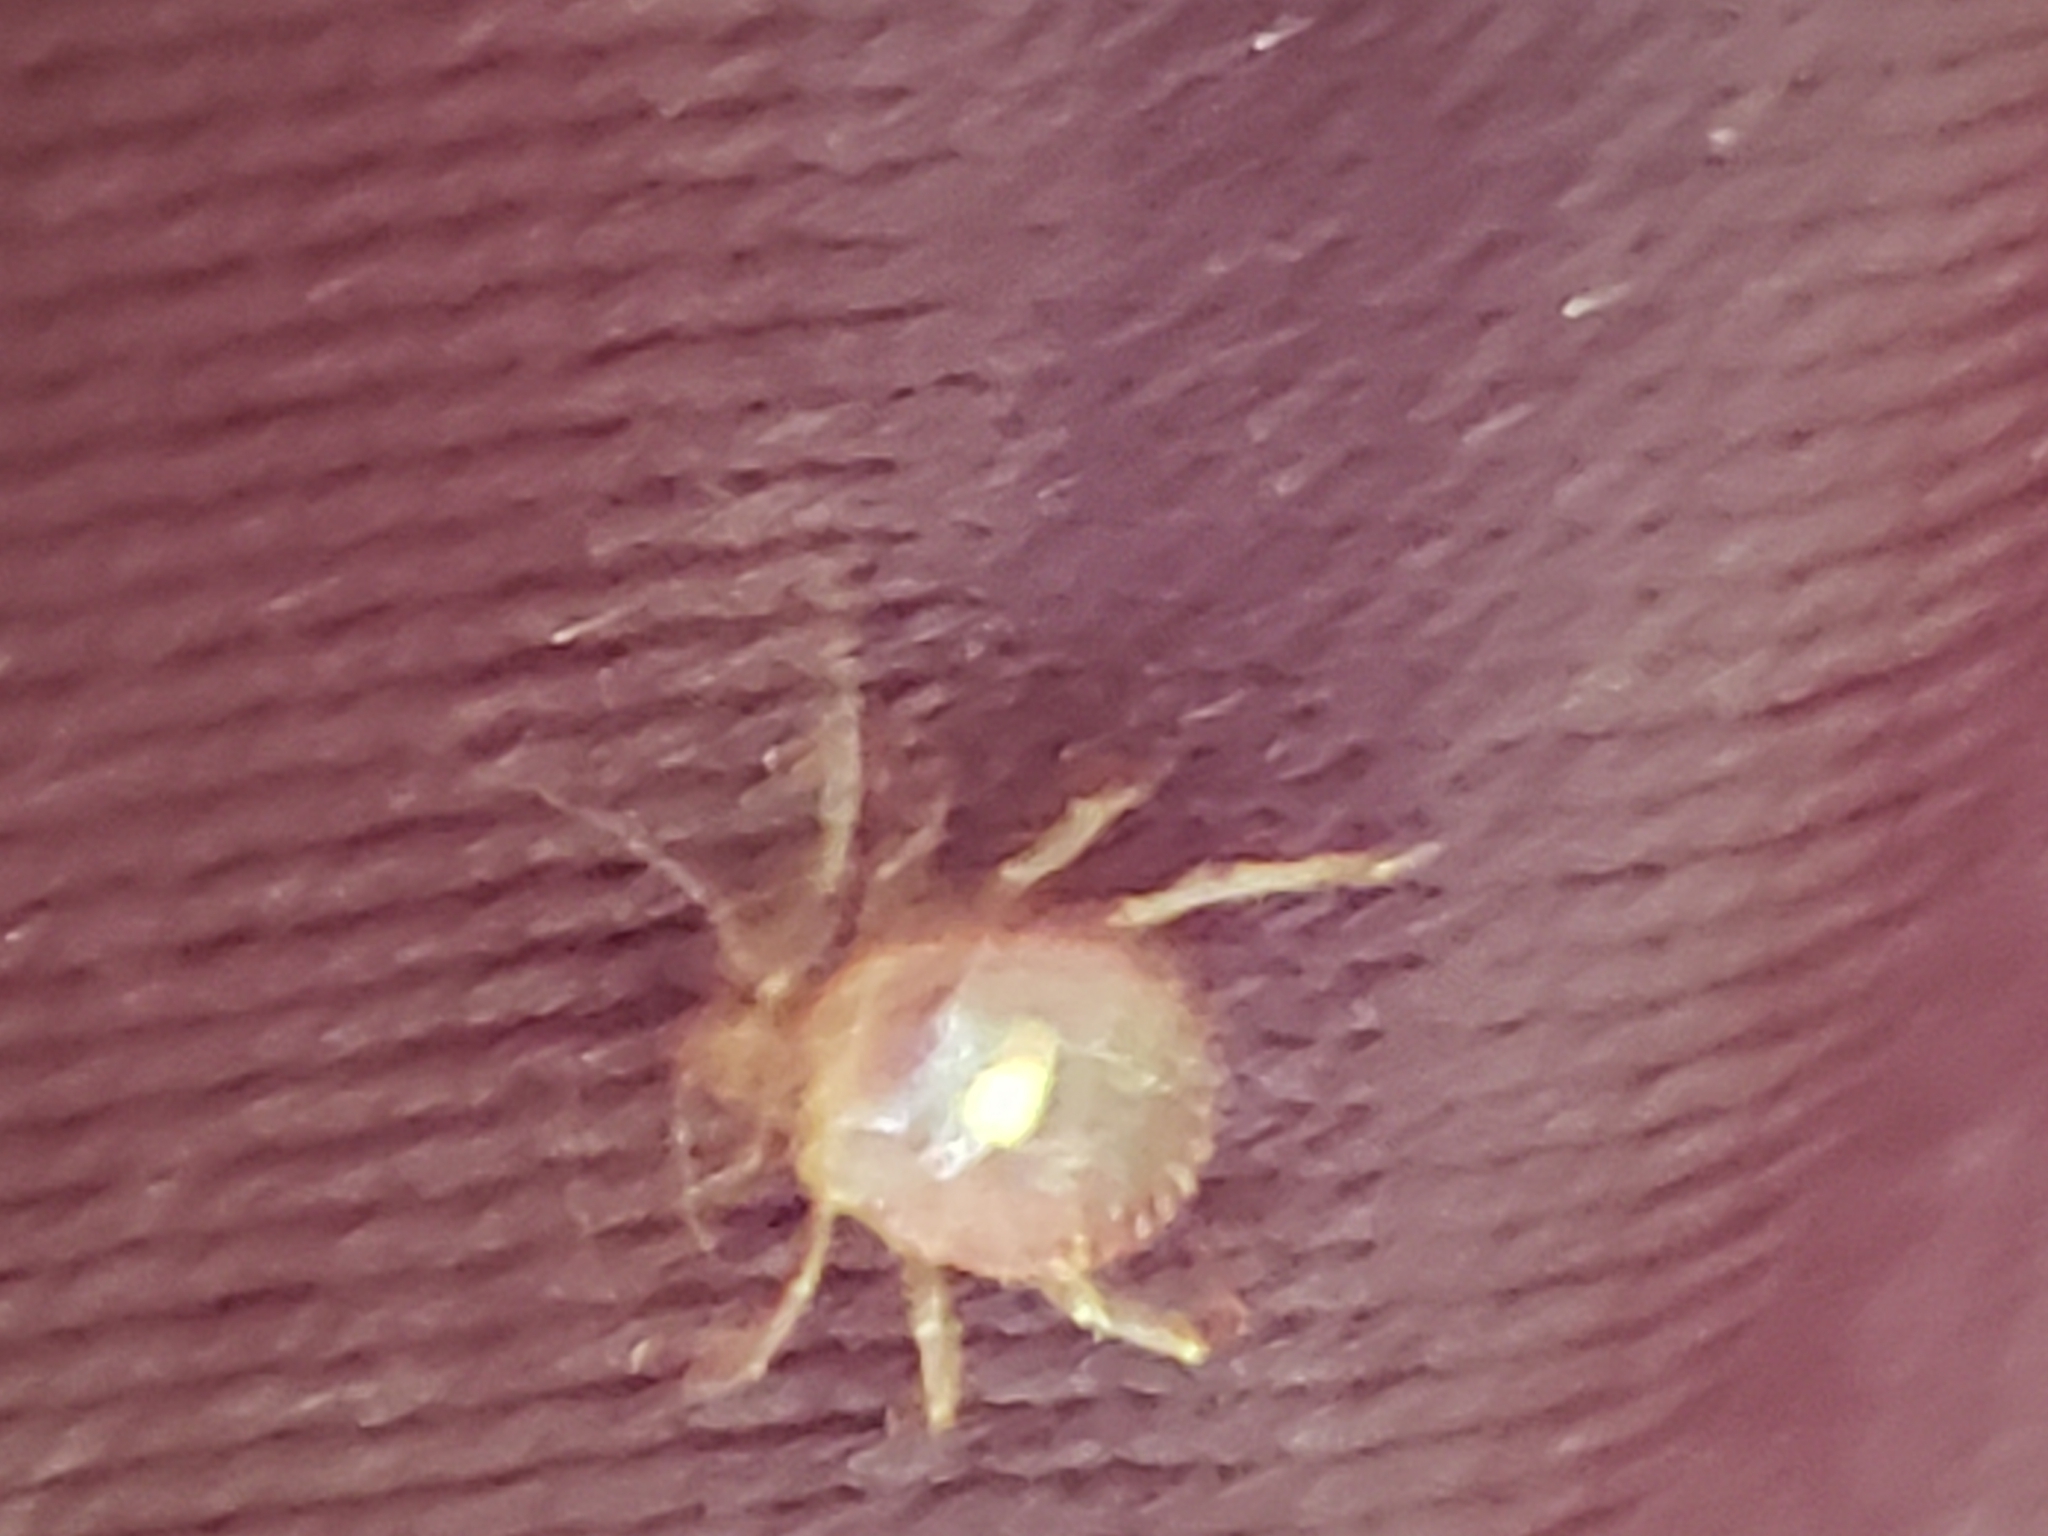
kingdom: Animalia
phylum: Arthropoda
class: Arachnida
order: Ixodida
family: Ixodidae
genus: Amblyomma
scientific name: Amblyomma americanum
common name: Lone star tick
